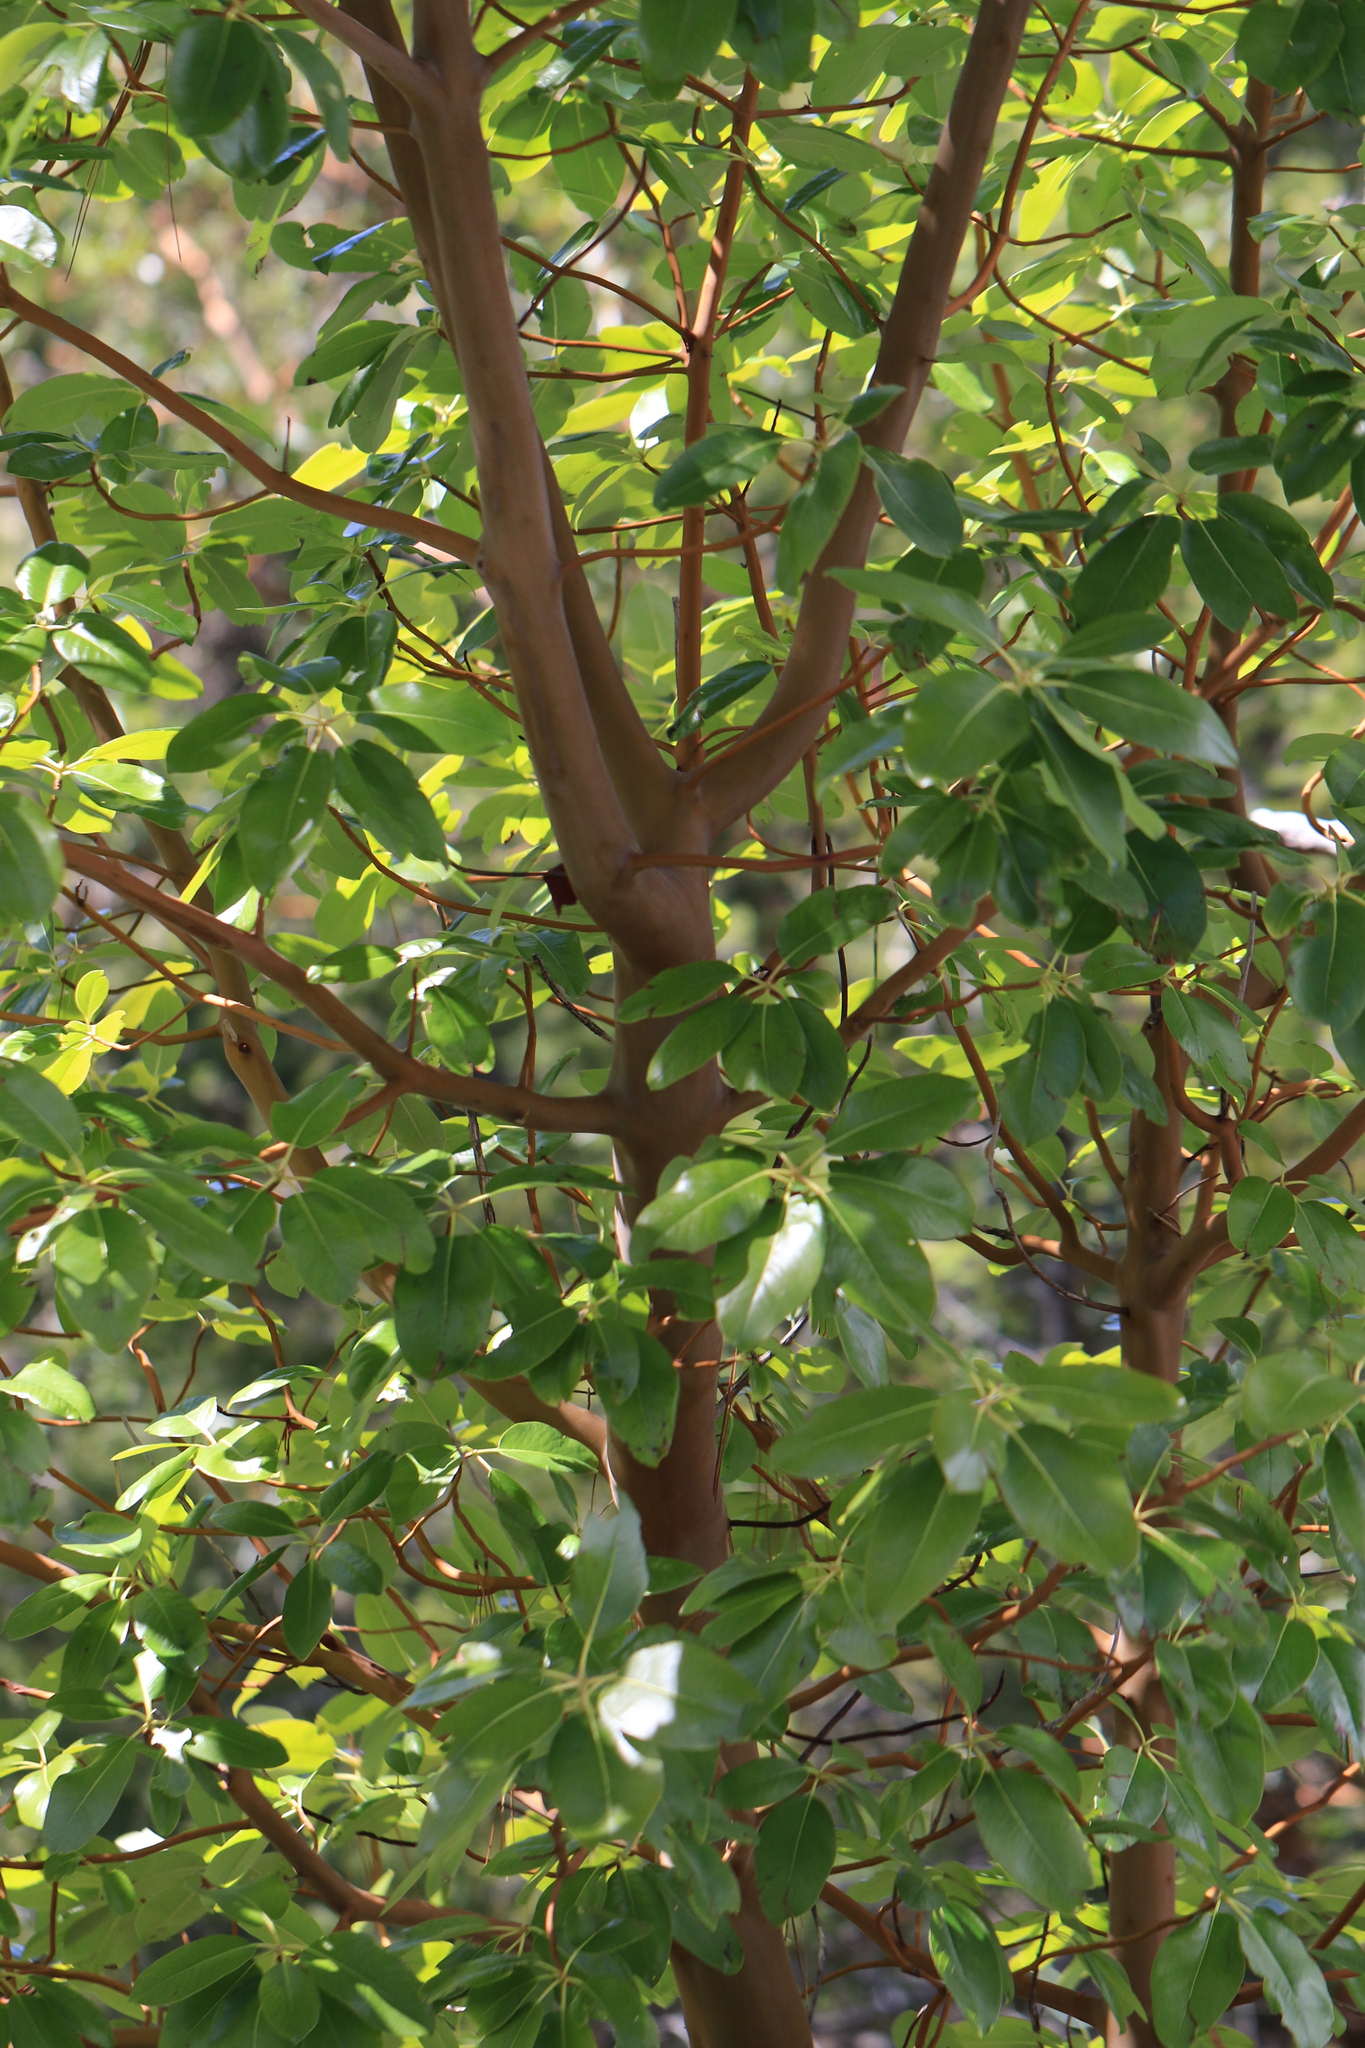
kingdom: Plantae
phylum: Tracheophyta
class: Magnoliopsida
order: Ericales
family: Ericaceae
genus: Arbutus
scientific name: Arbutus menziesii
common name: Pacific madrone
